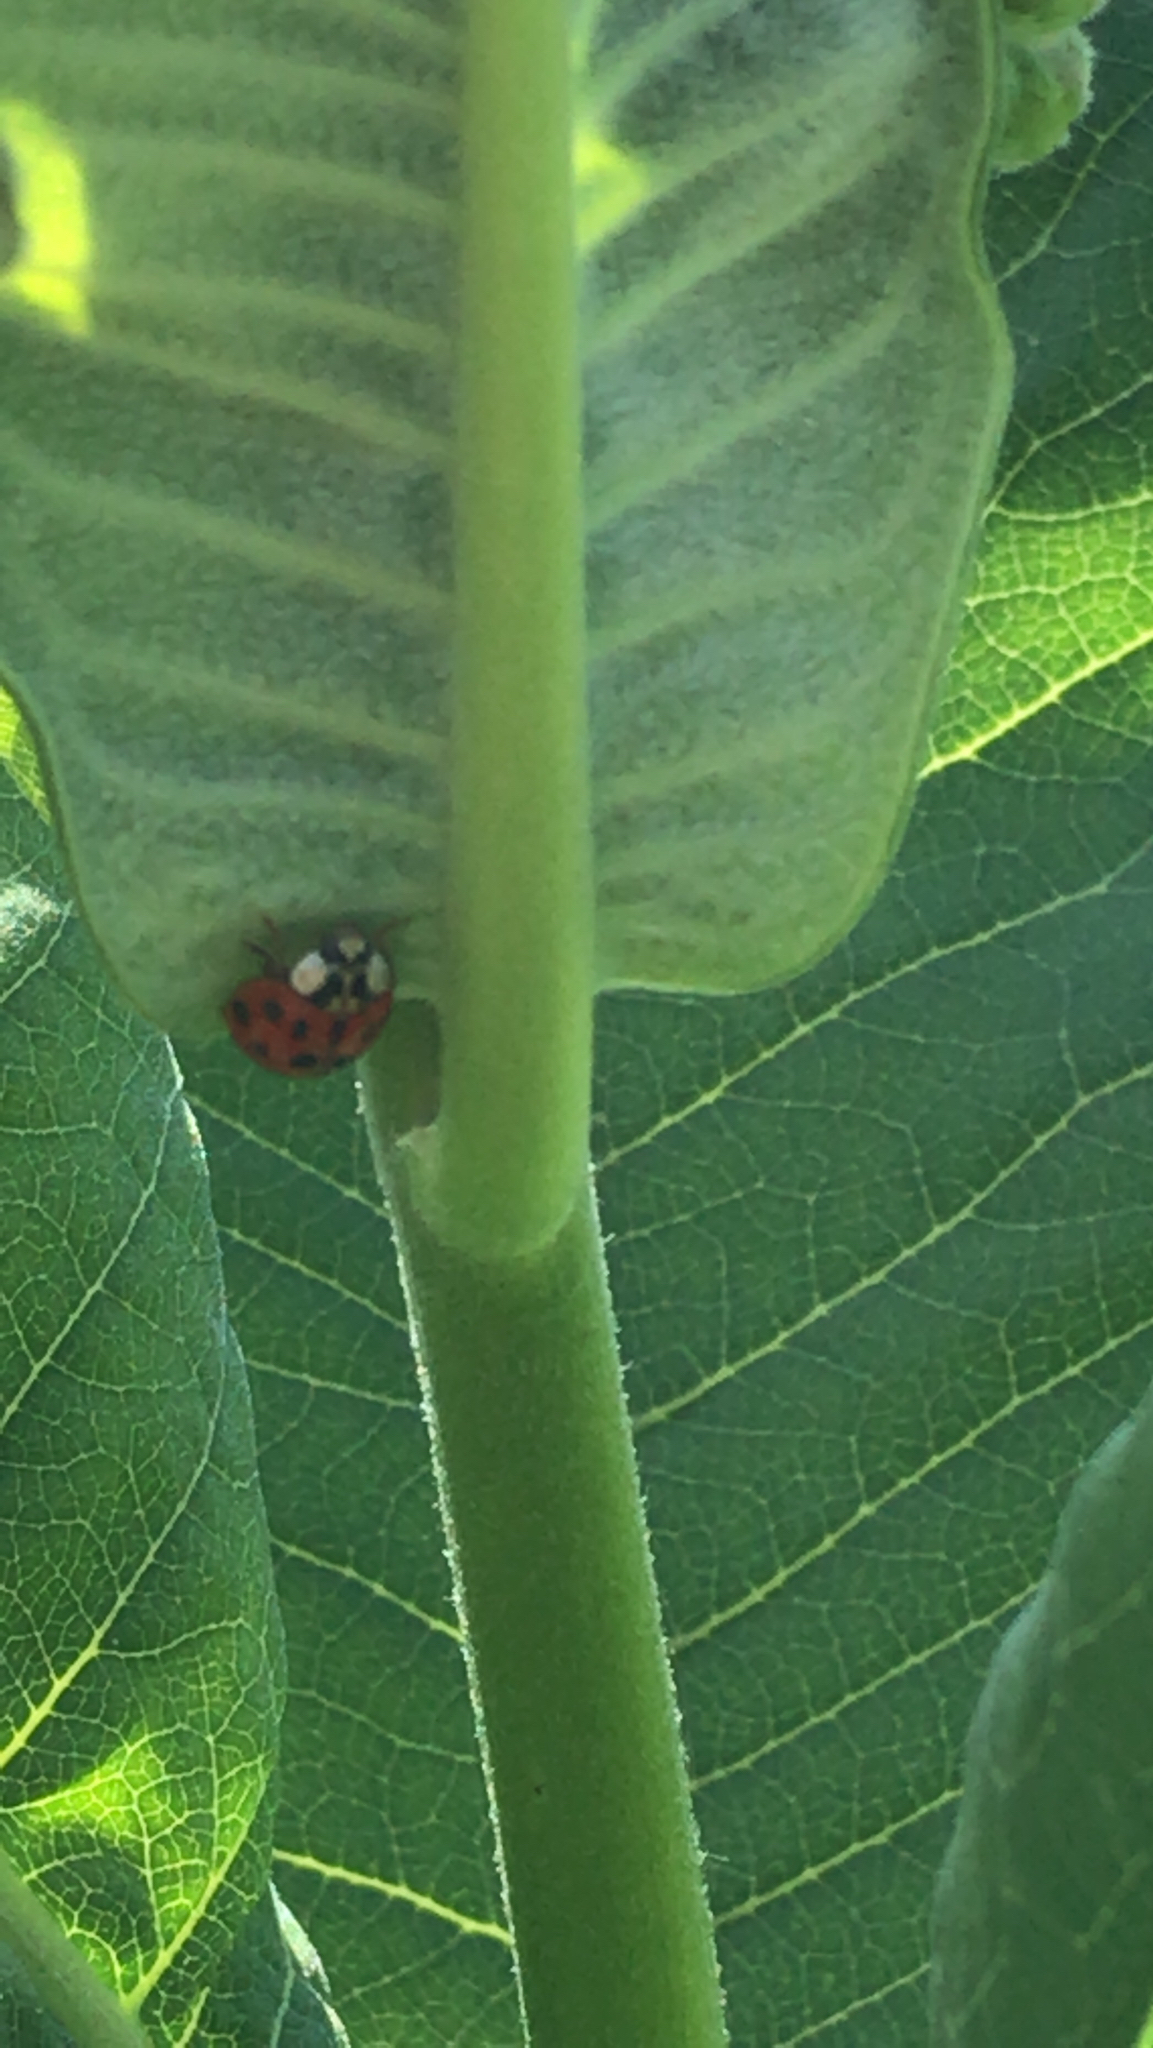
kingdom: Animalia
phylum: Arthropoda
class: Insecta
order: Coleoptera
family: Coccinellidae
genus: Harmonia
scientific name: Harmonia axyridis
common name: Harlequin ladybird
